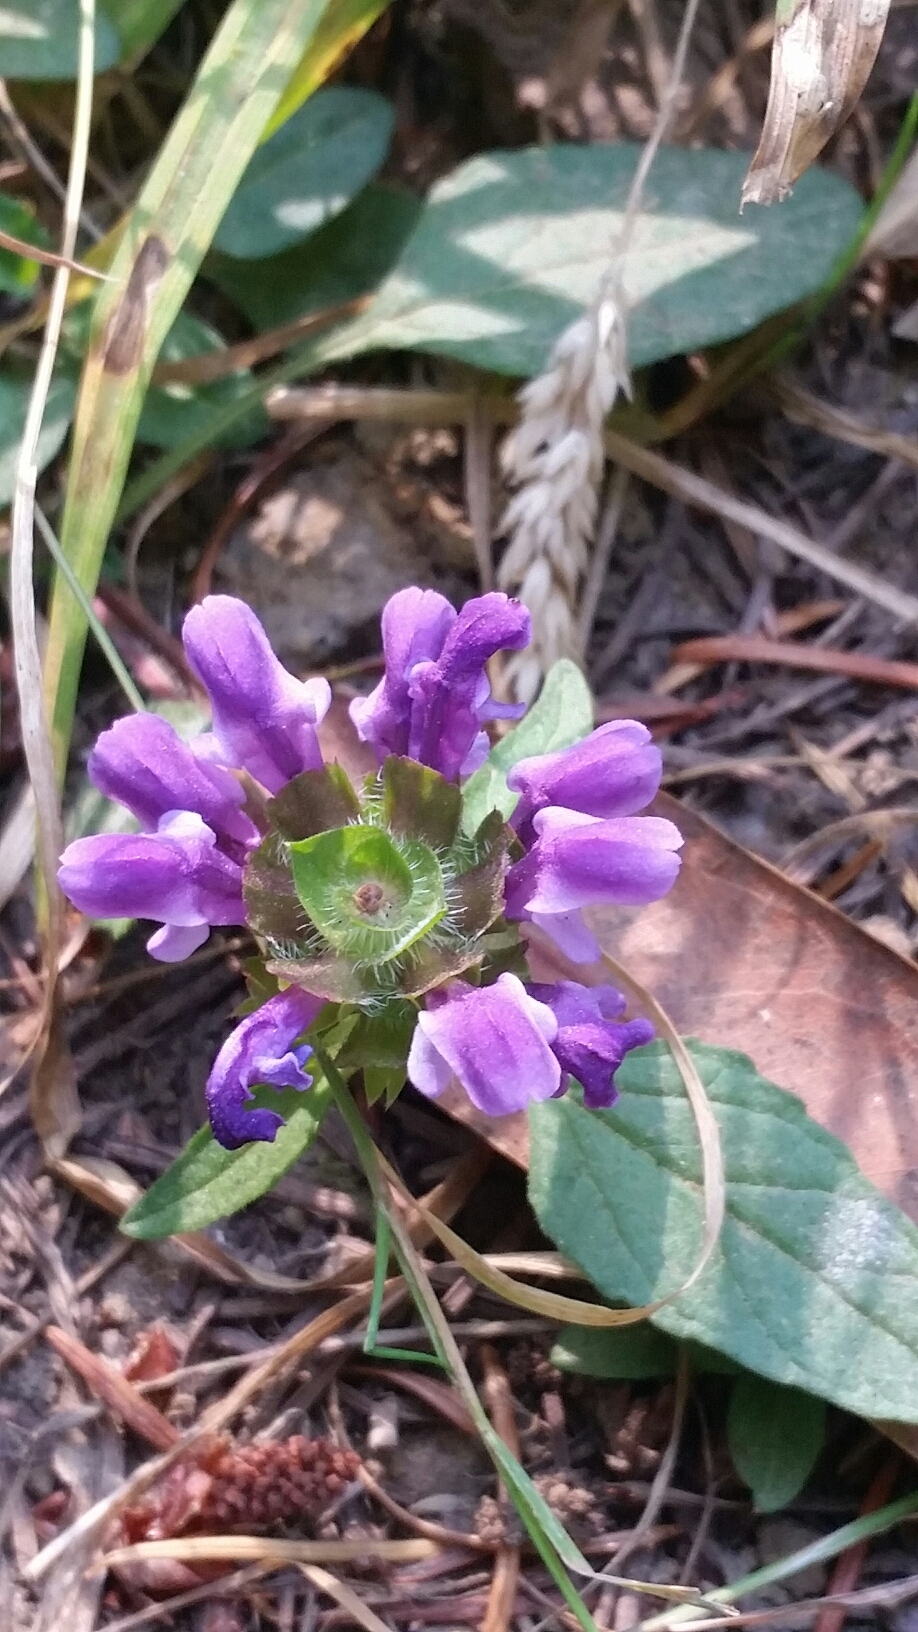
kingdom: Plantae
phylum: Tracheophyta
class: Magnoliopsida
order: Lamiales
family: Lamiaceae
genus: Prunella
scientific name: Prunella vulgaris
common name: Heal-all
